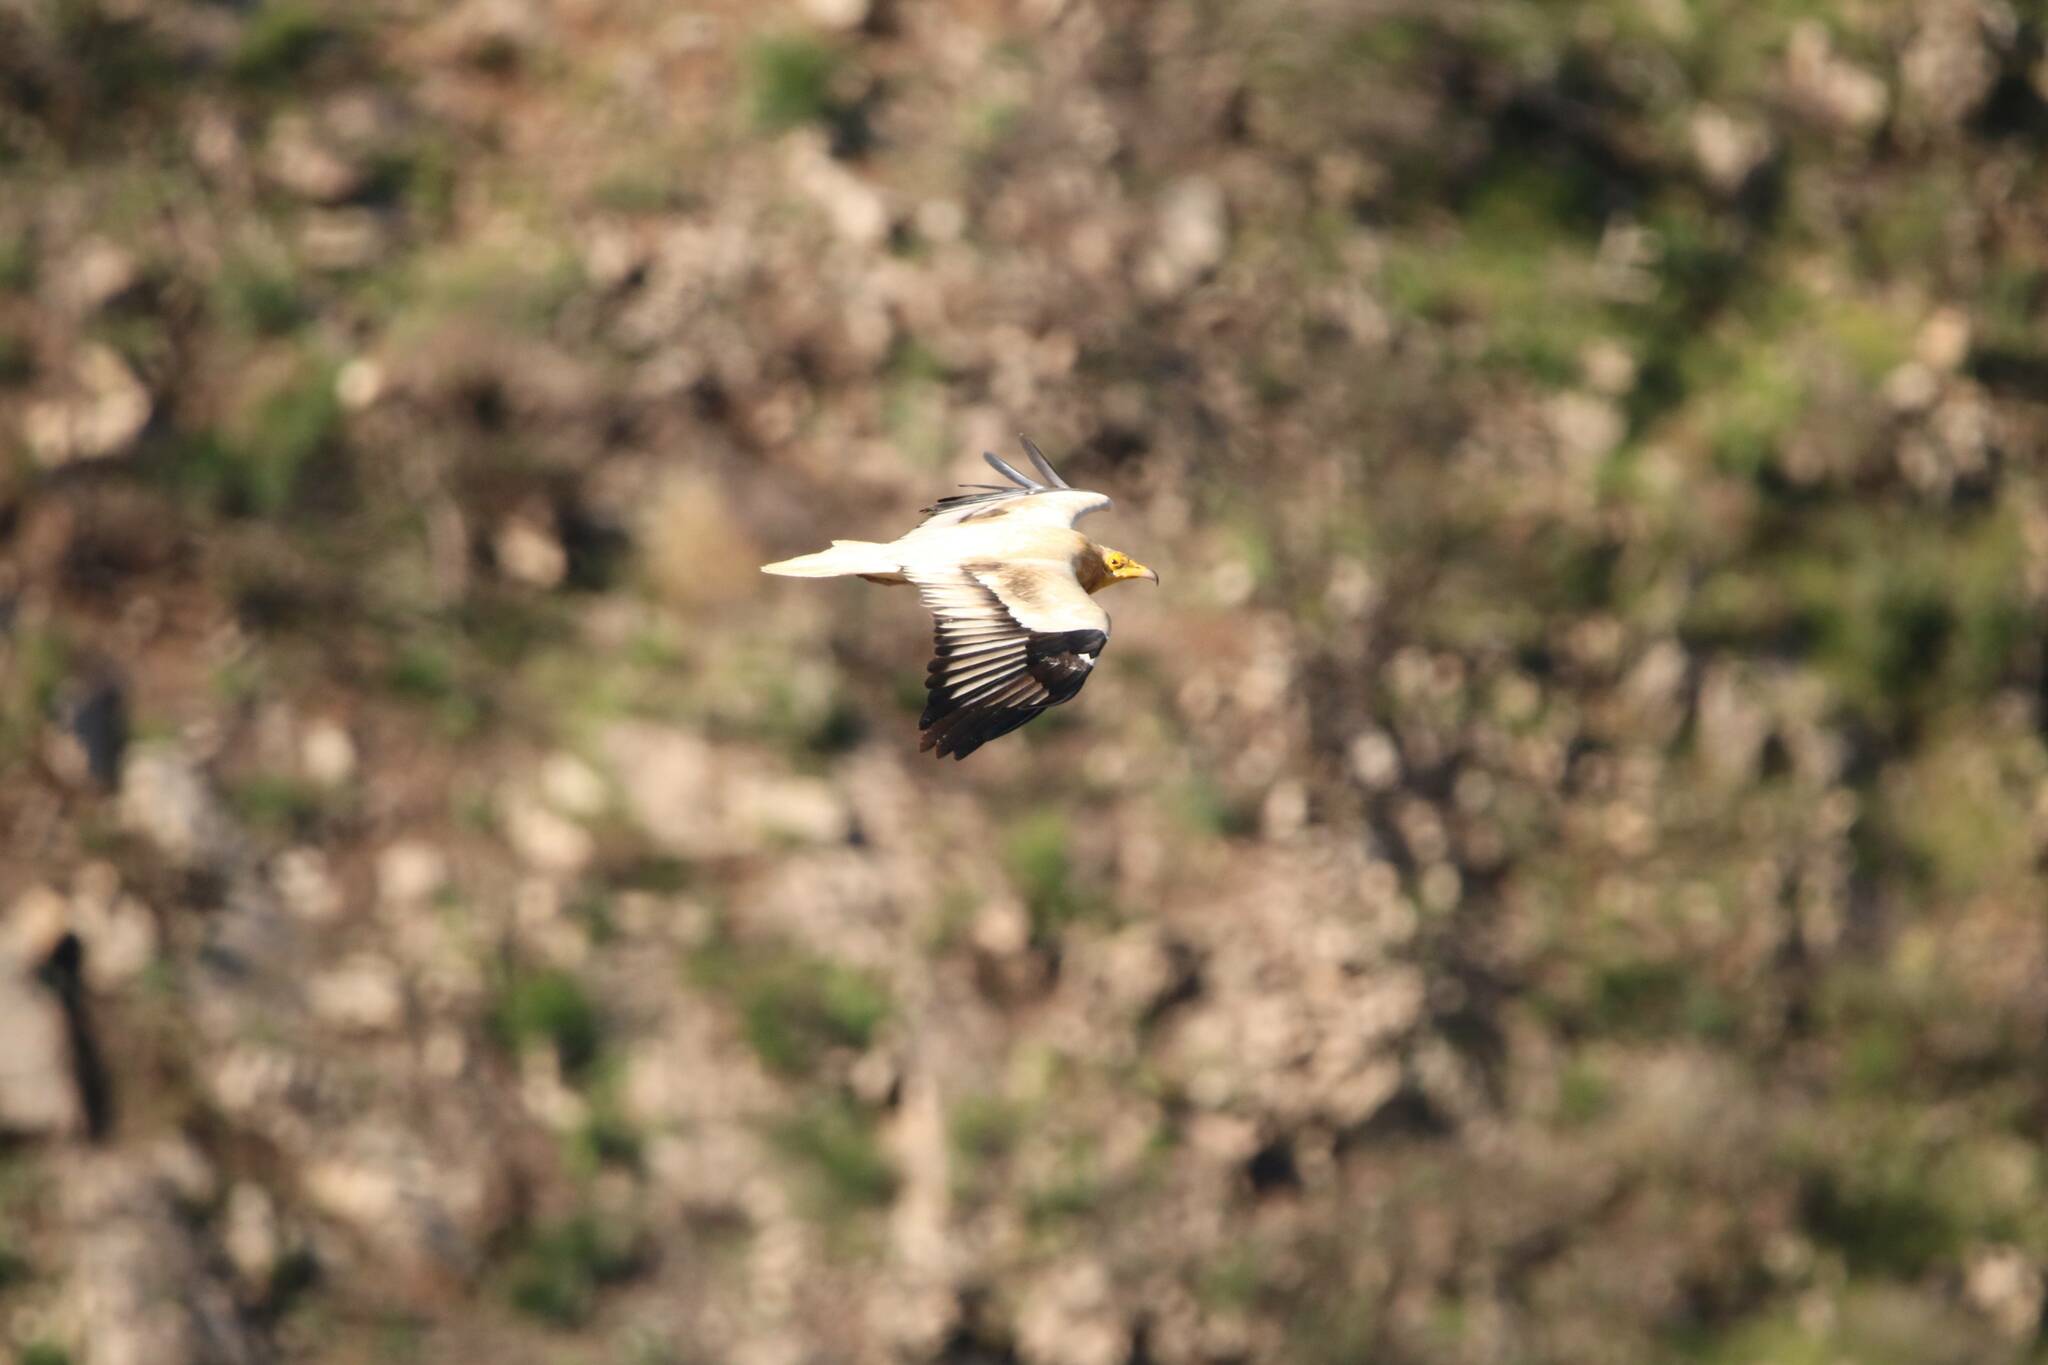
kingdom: Animalia
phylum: Chordata
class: Aves
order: Accipitriformes
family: Accipitridae
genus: Neophron
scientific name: Neophron percnopterus
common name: Egyptian vulture
